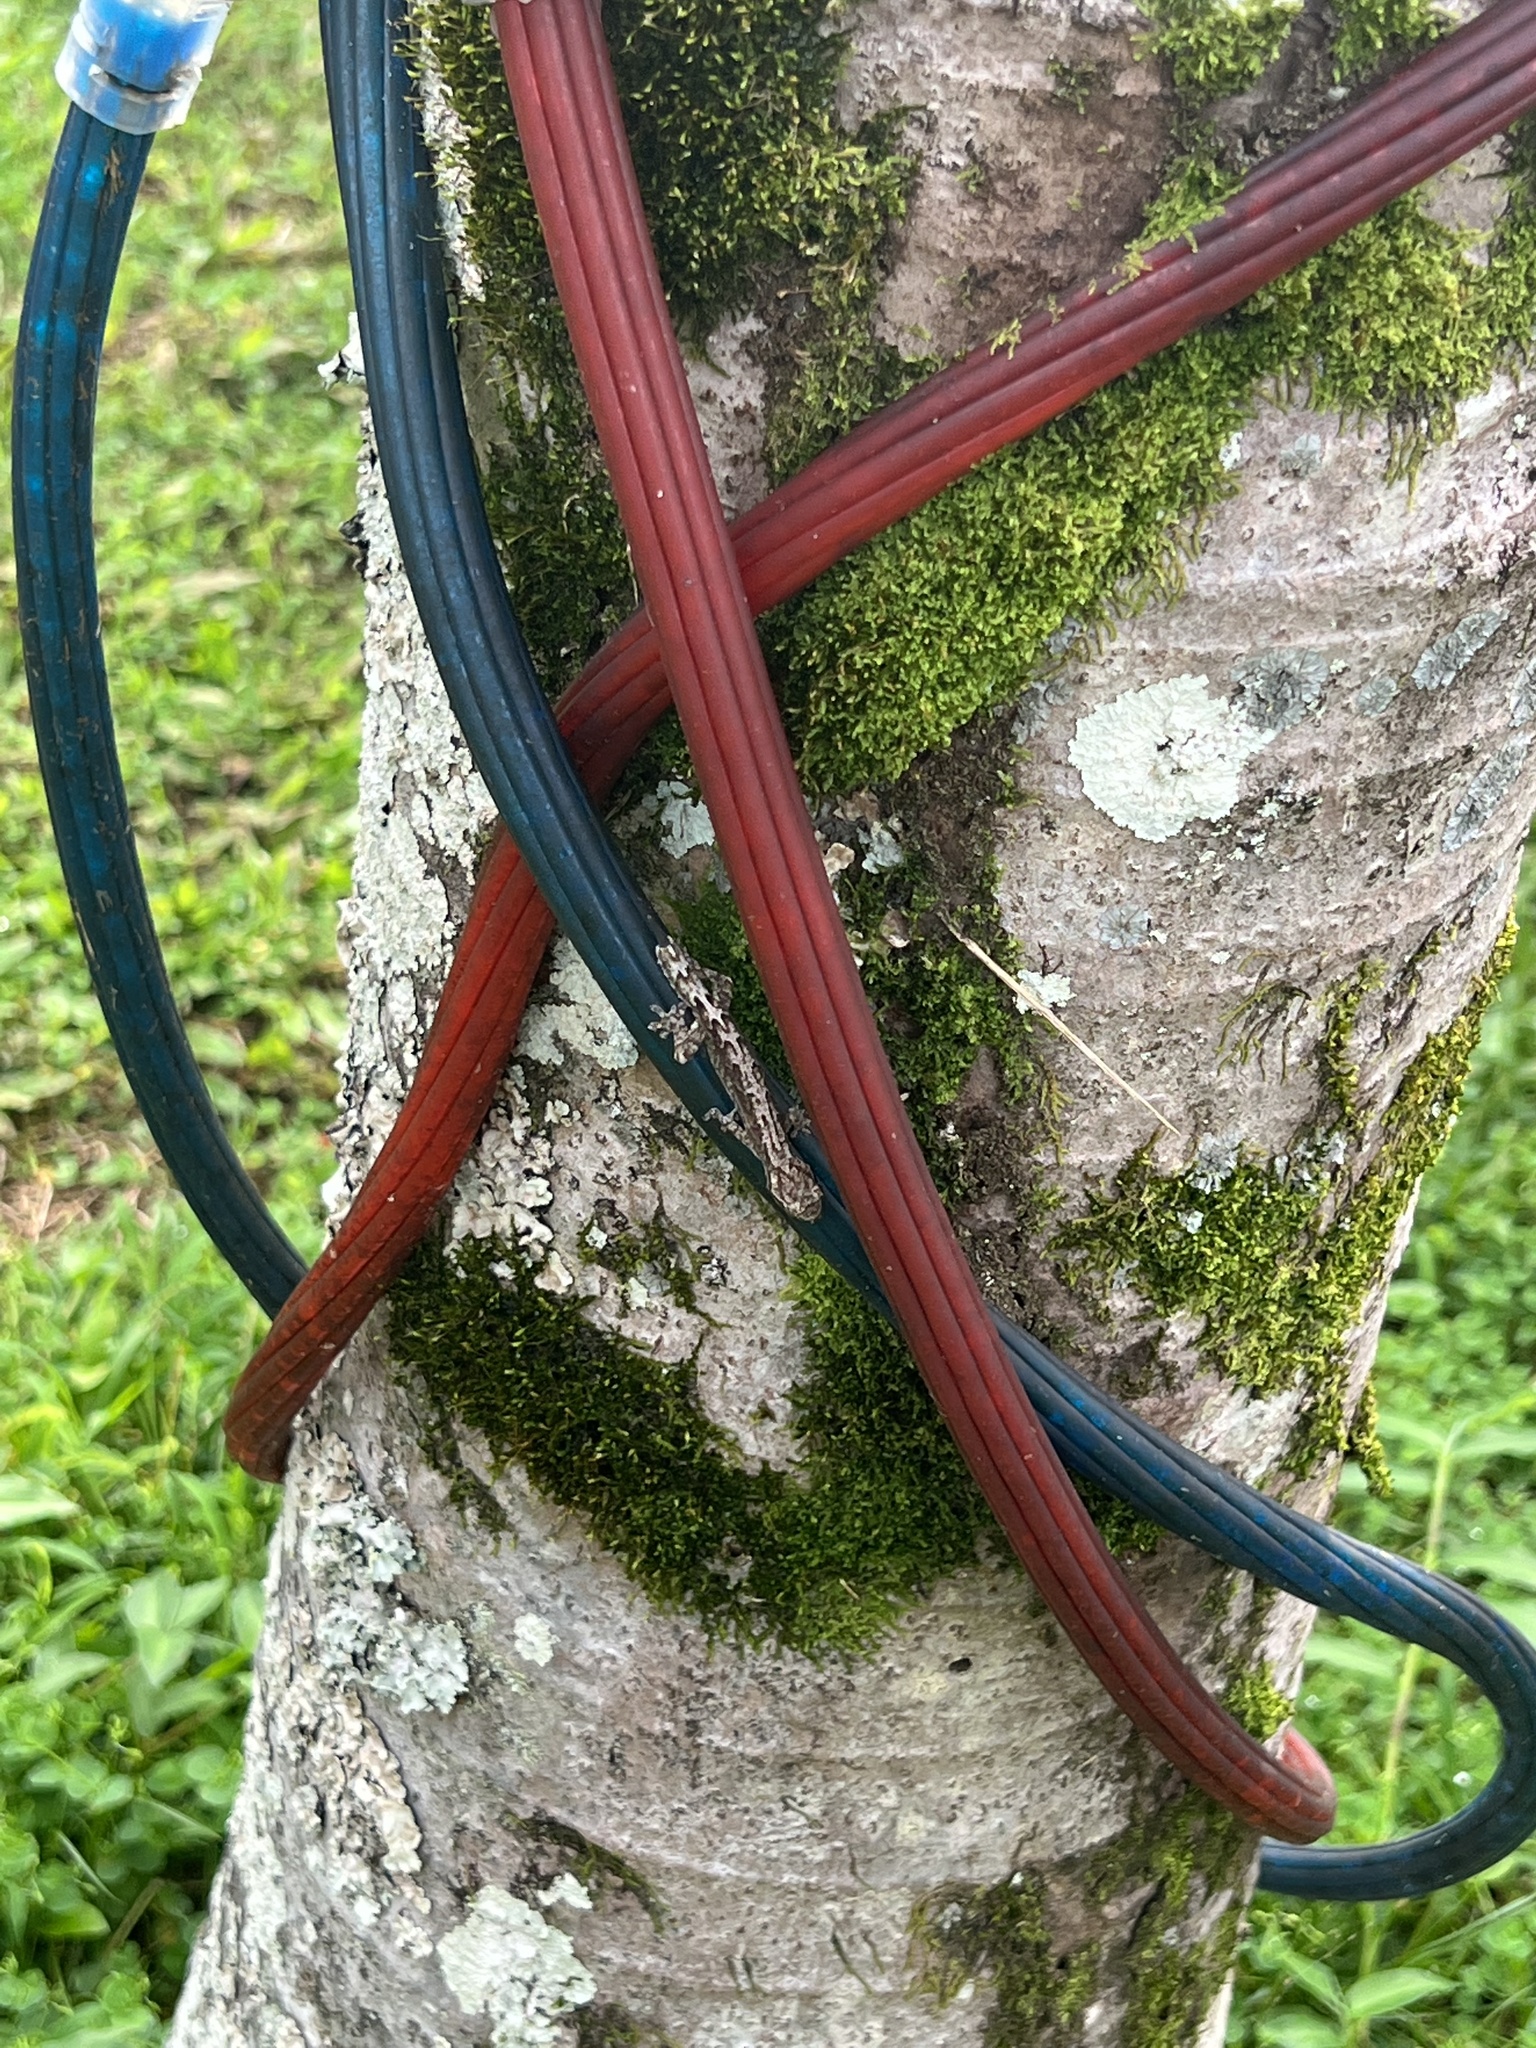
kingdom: Animalia
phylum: Chordata
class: Squamata
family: Gekkonidae
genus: Lepidodactylus
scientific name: Lepidodactylus lugubris
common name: Mourning gecko
